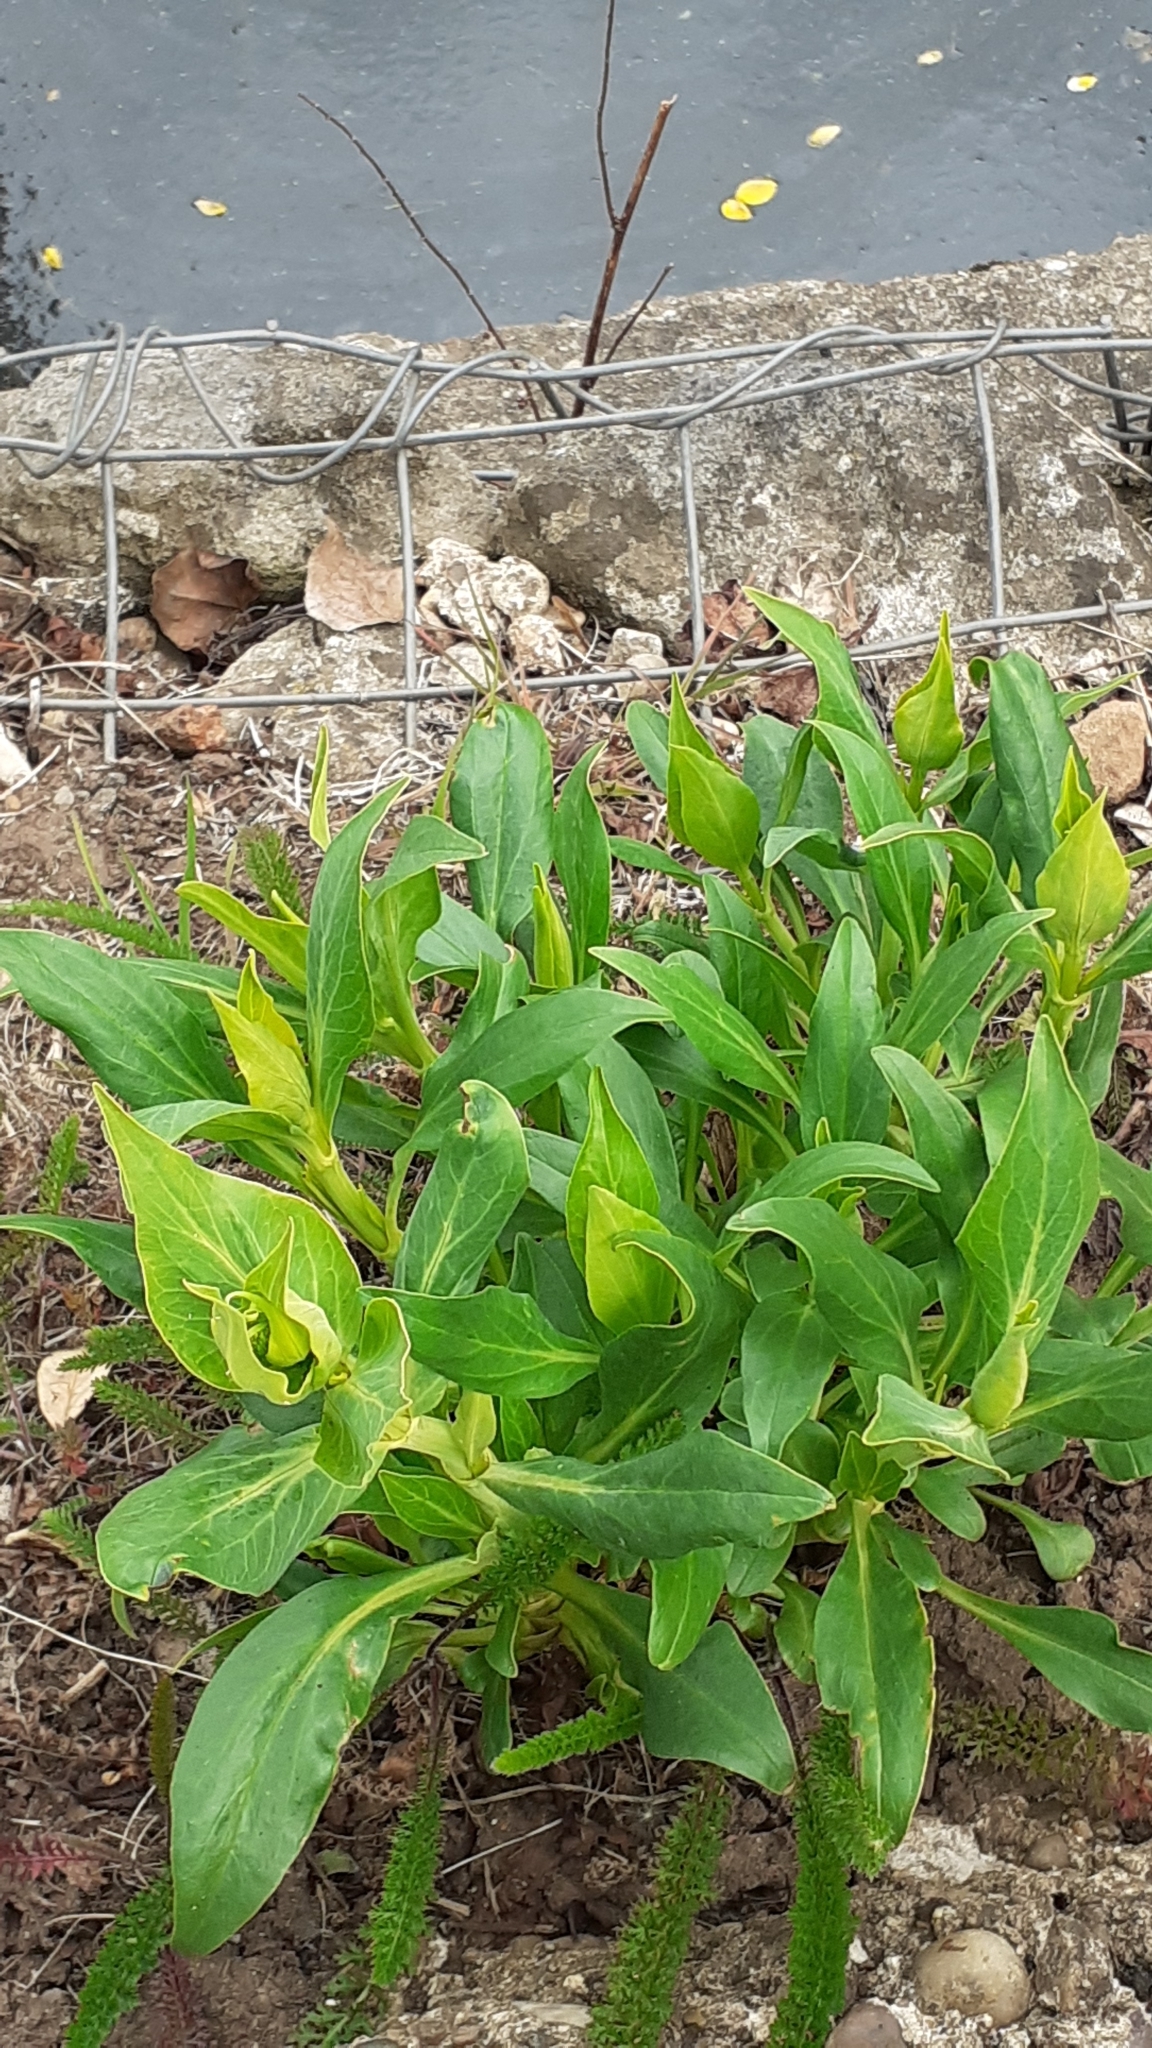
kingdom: Plantae
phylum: Tracheophyta
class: Magnoliopsida
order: Dipsacales
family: Caprifoliaceae
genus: Centranthus
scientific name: Centranthus ruber
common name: Red valerian
